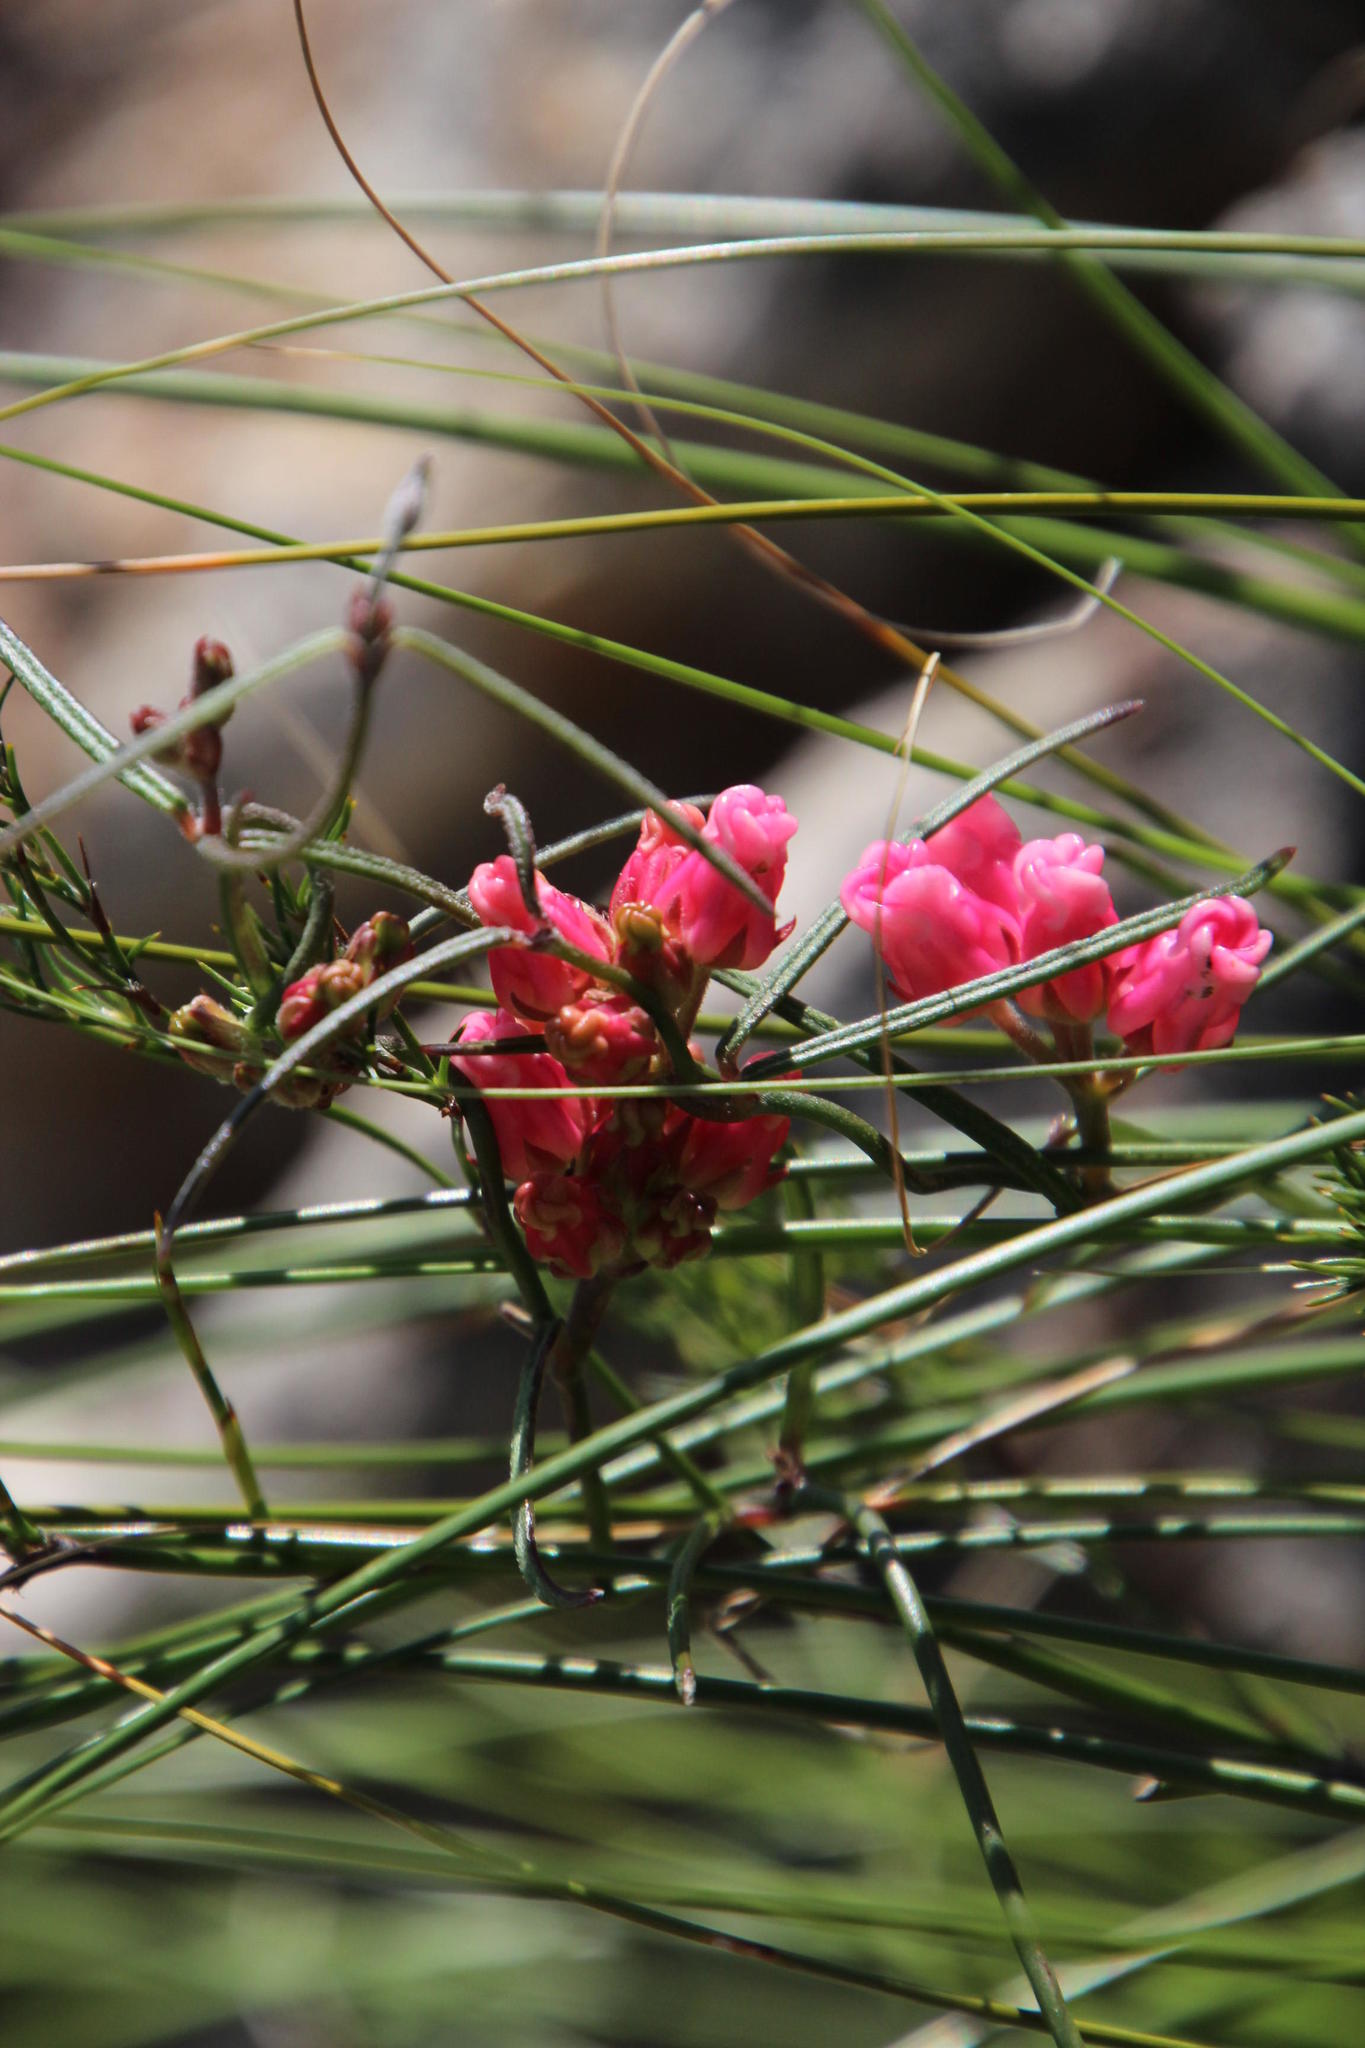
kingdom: Plantae
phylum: Tracheophyta
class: Magnoliopsida
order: Gentianales
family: Apocynaceae
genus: Microloma
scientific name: Microloma tenuifolium
